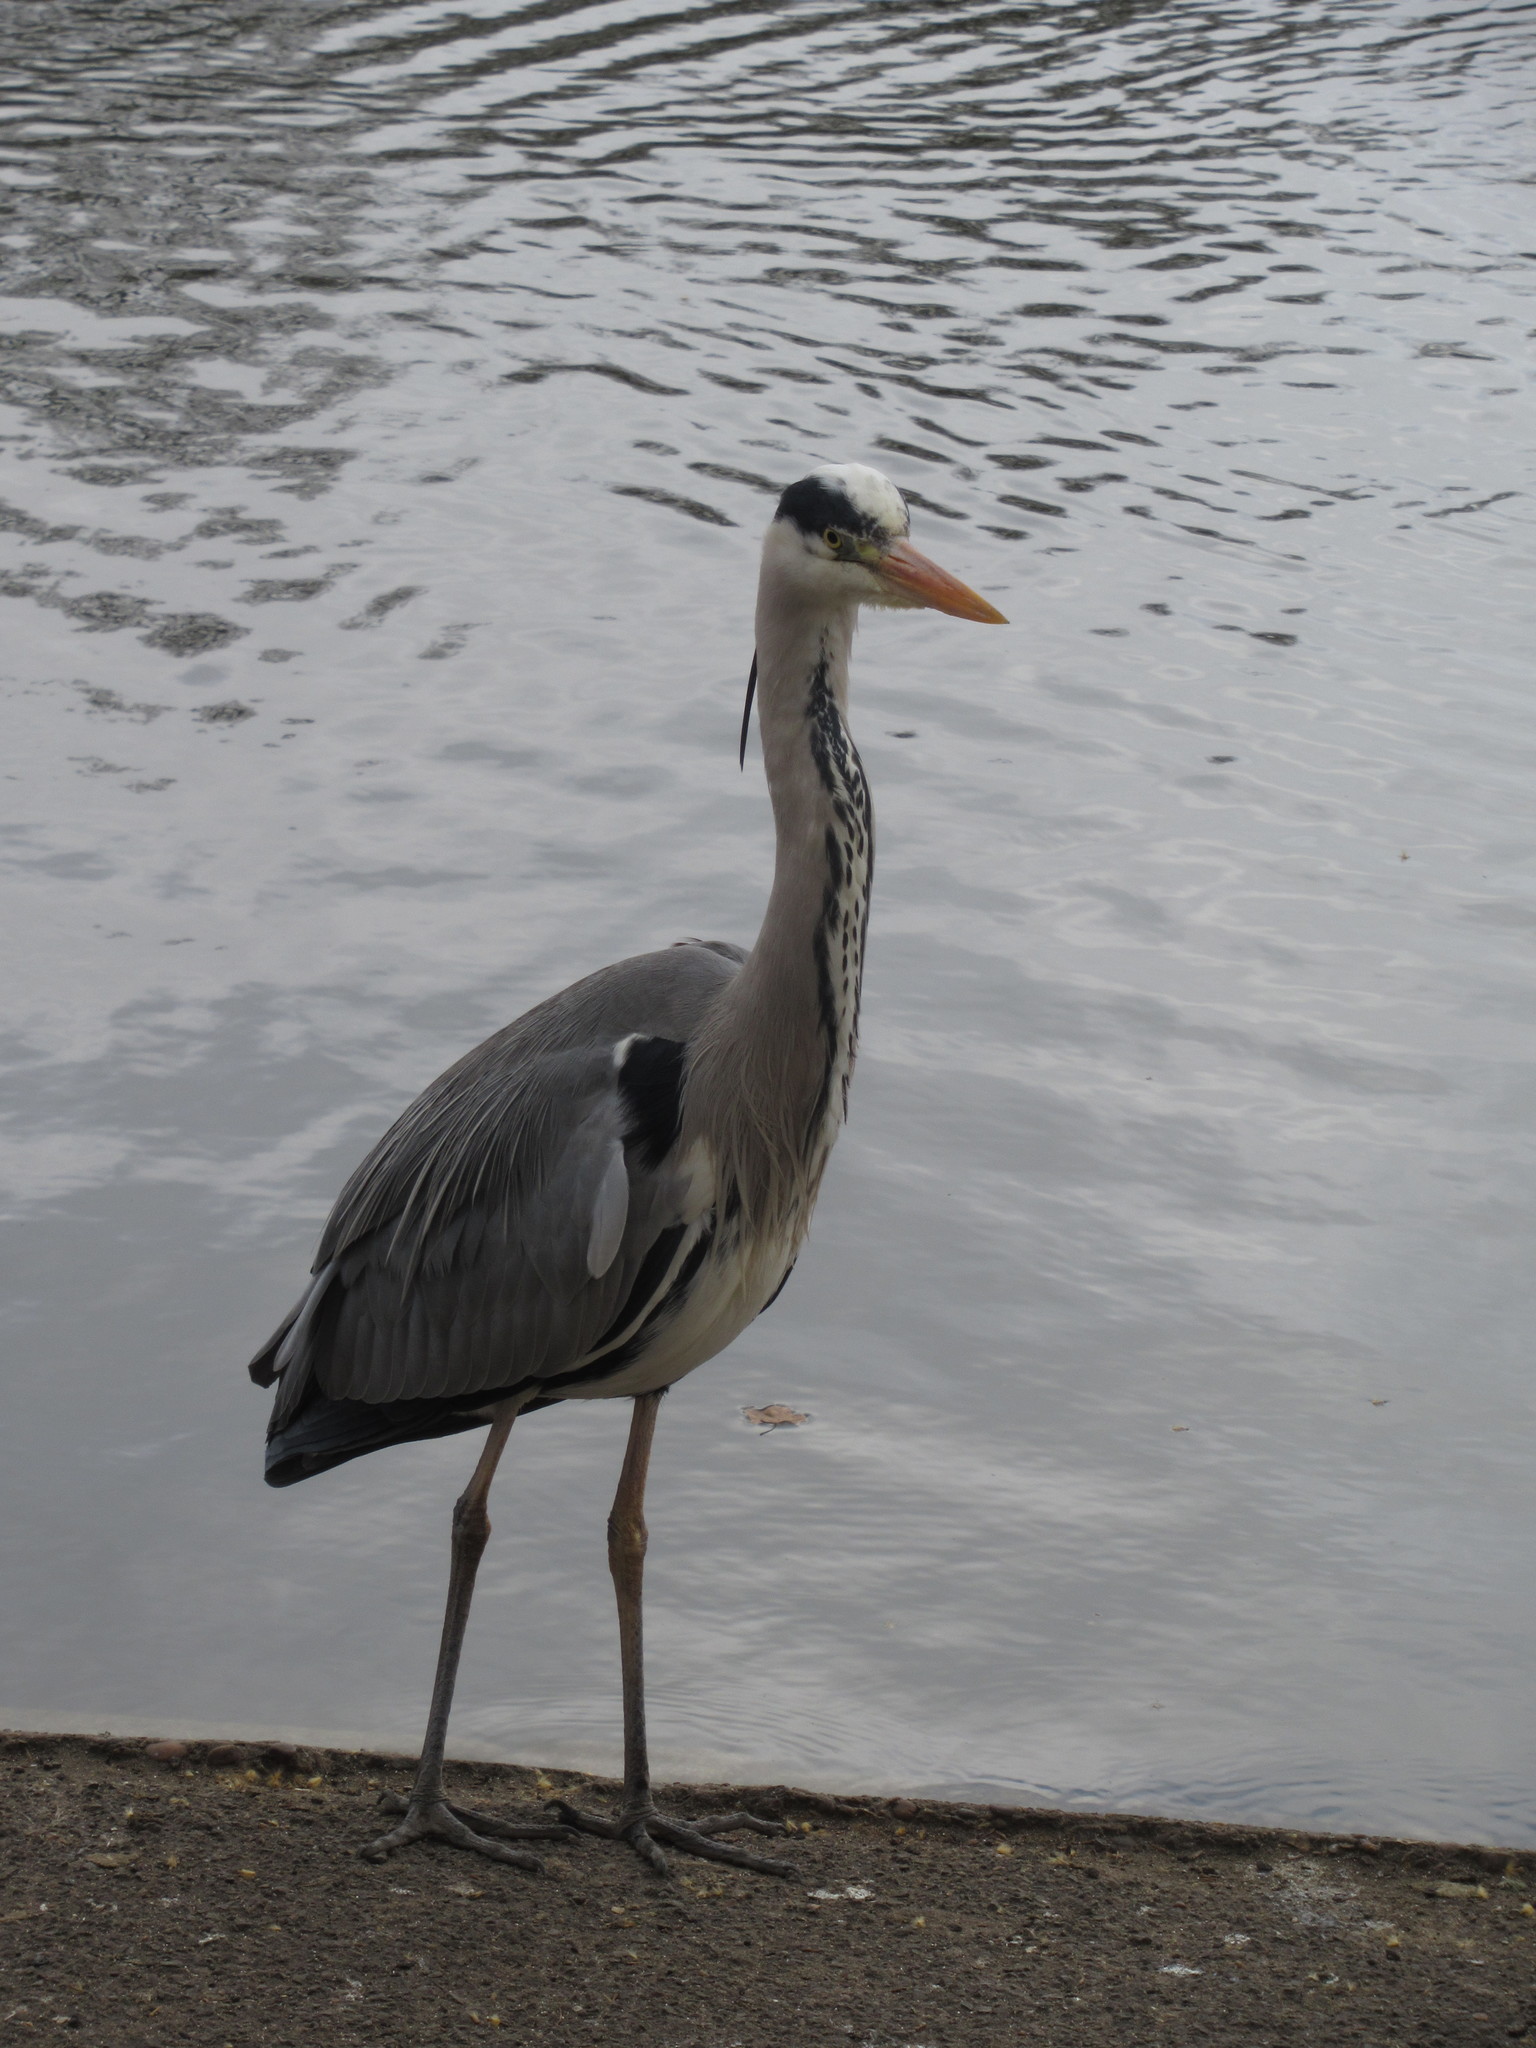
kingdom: Animalia
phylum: Chordata
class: Aves
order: Pelecaniformes
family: Ardeidae
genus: Ardea
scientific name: Ardea cinerea
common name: Grey heron
